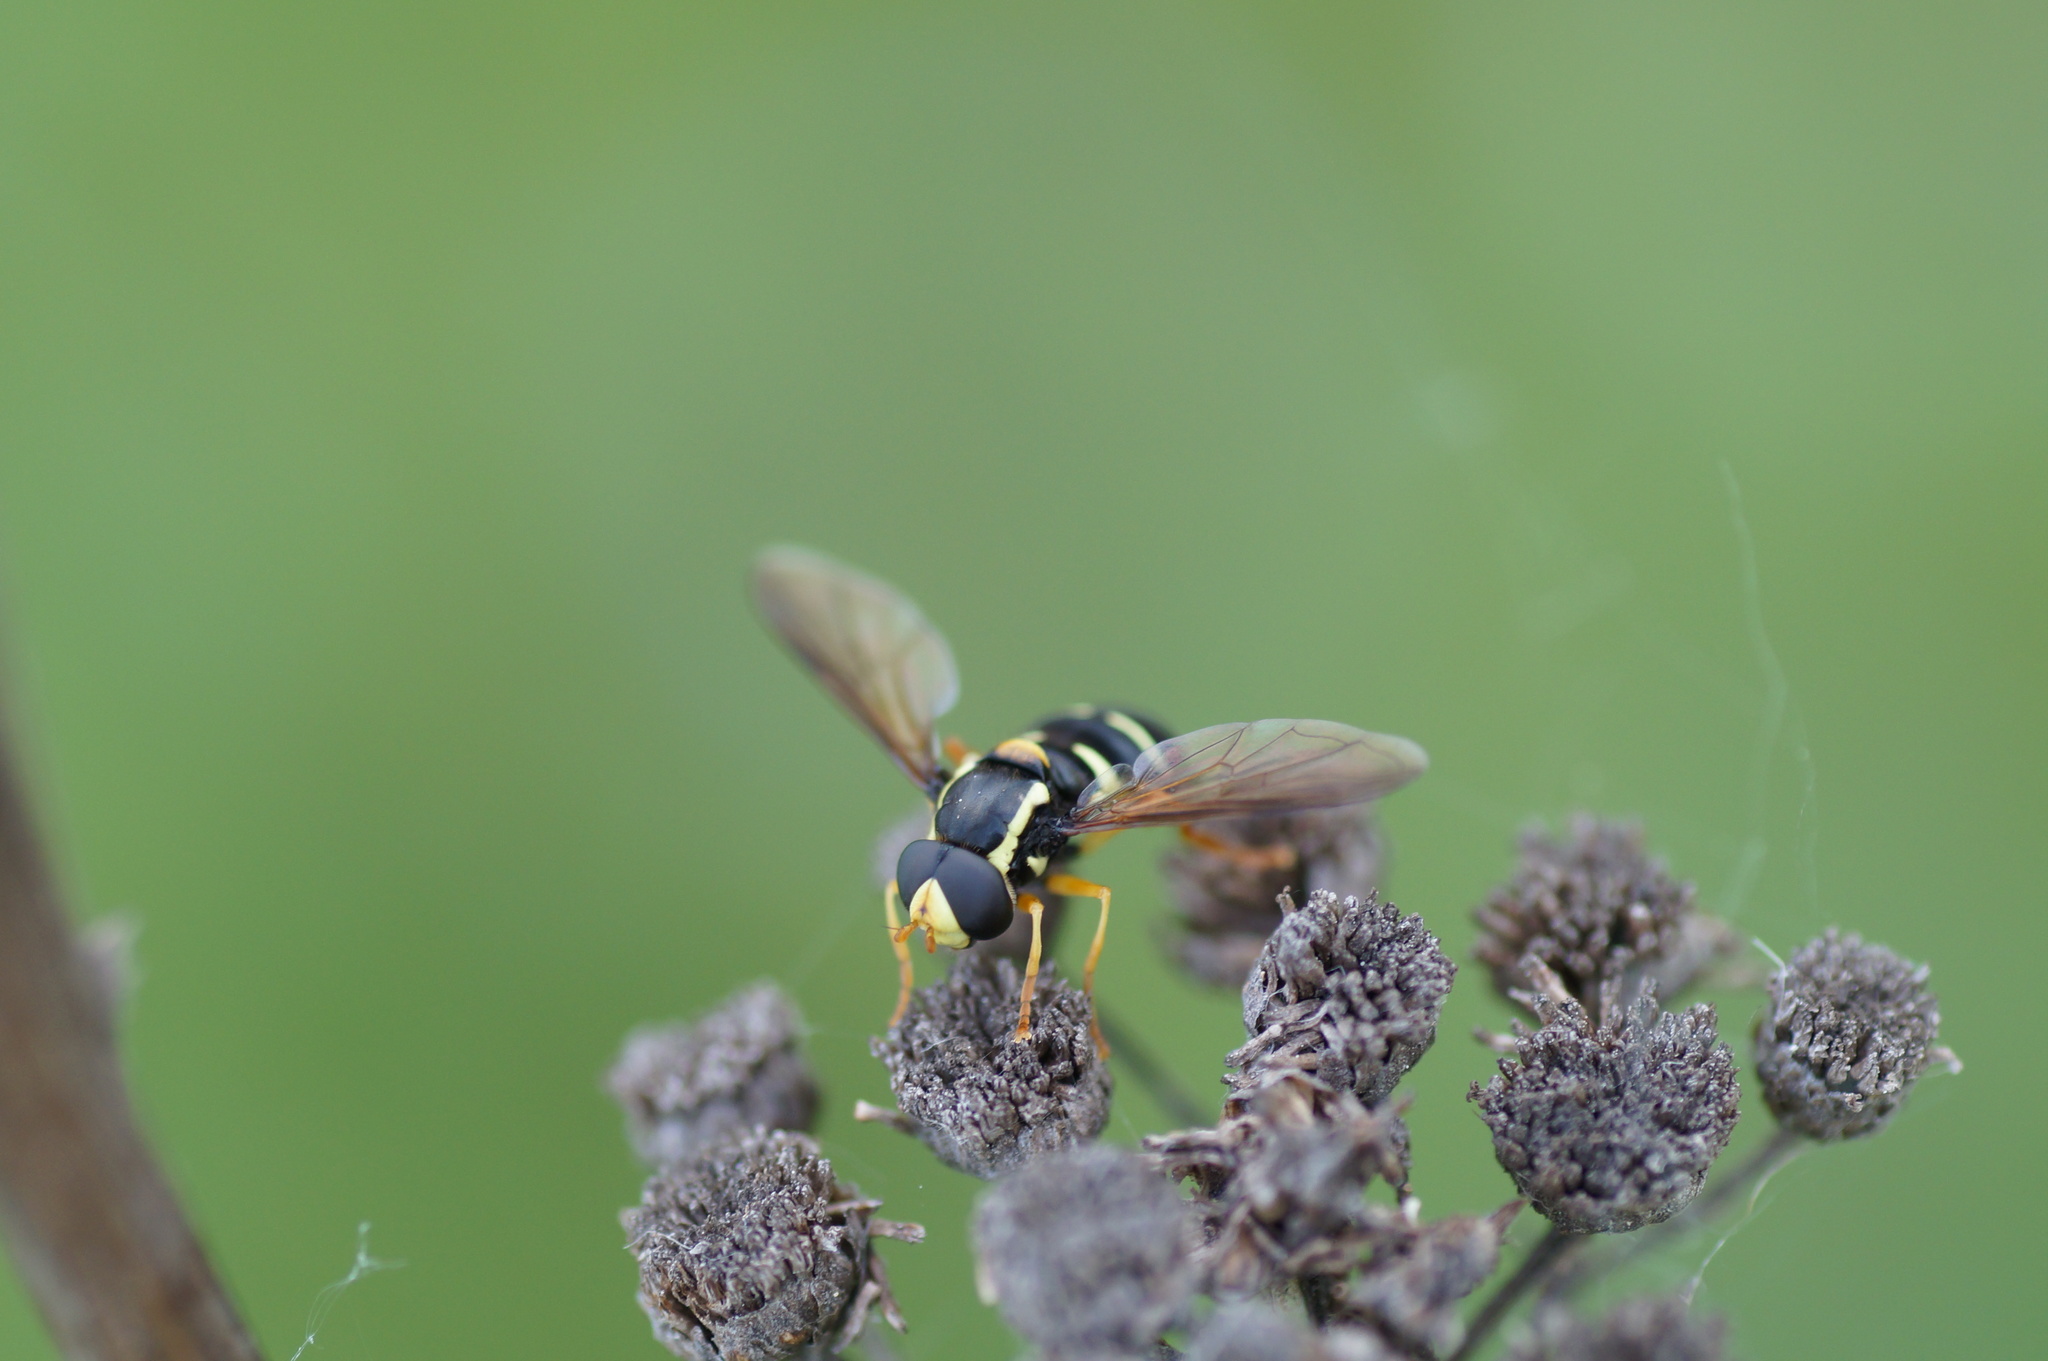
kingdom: Animalia
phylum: Arthropoda
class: Insecta
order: Diptera
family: Syrphidae
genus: Philhelius
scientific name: Philhelius citrofasciata
